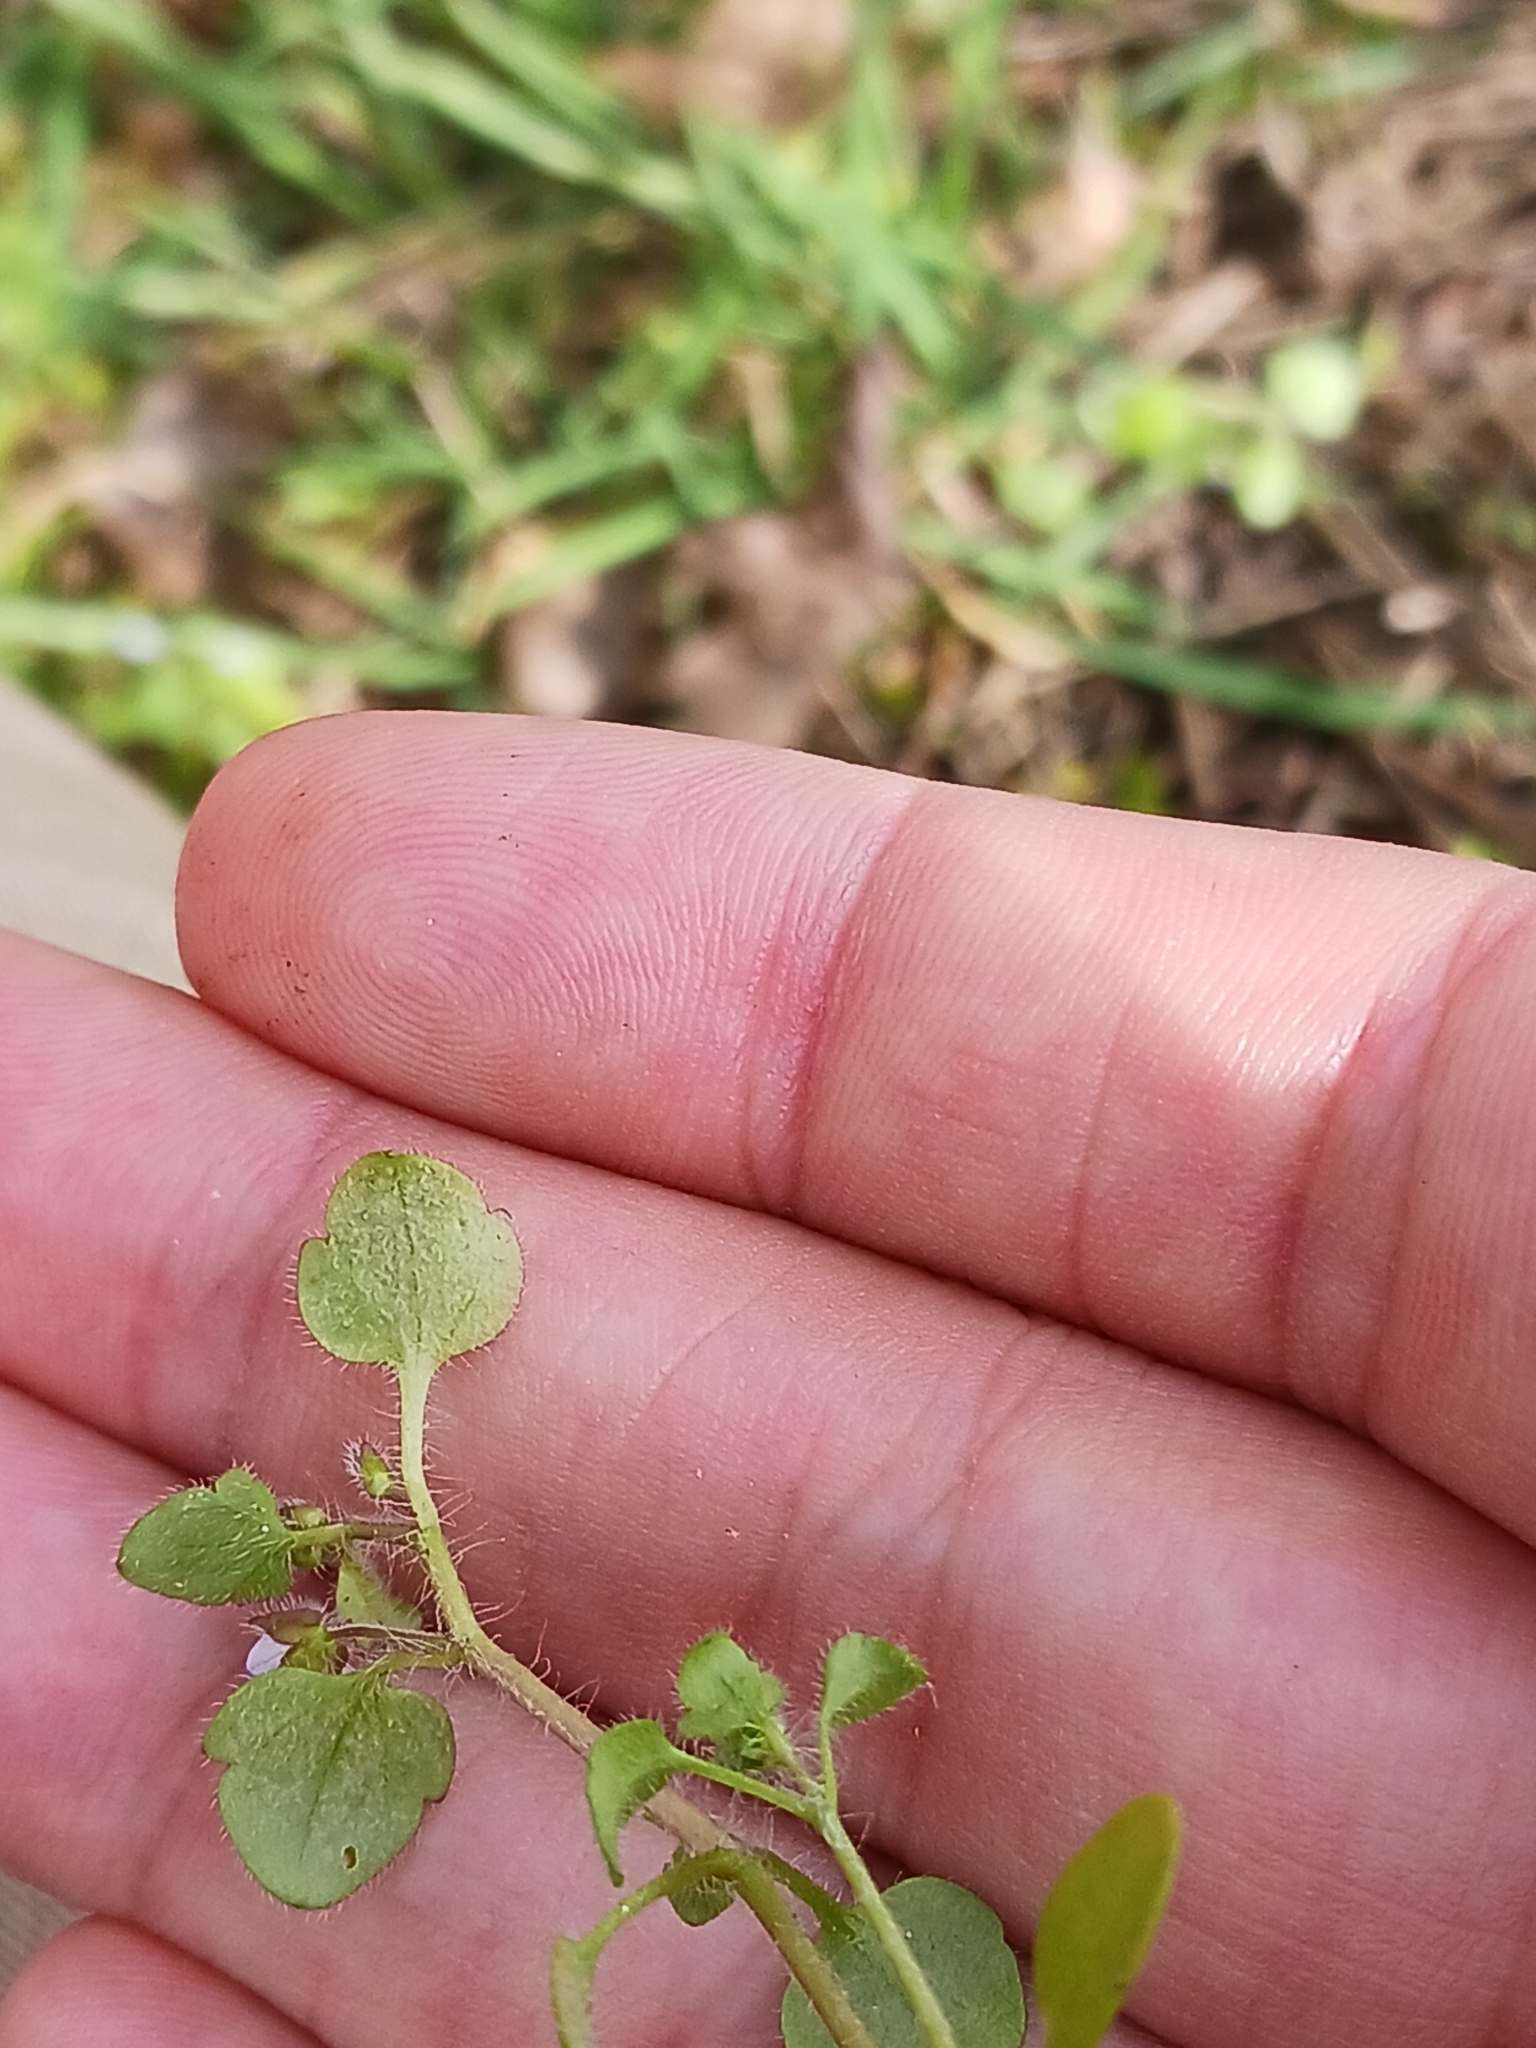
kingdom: Chromista
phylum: Oomycota
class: Peronosporea
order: Peronosporales
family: Peronosporaceae
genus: Peronospora
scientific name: Peronospora arvensis
